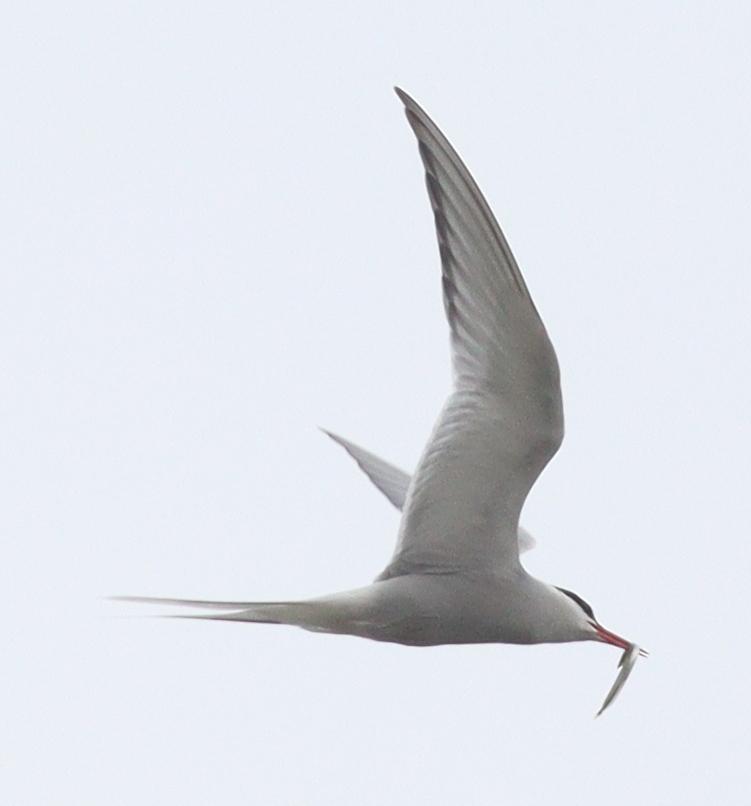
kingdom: Animalia
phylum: Chordata
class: Aves
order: Charadriiformes
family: Laridae
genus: Sterna
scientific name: Sterna paradisaea
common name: Arctic tern
